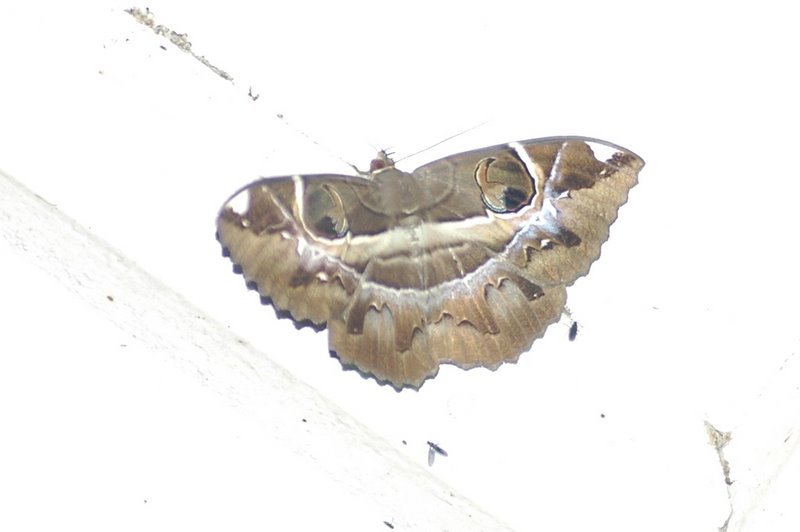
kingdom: Animalia
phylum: Arthropoda
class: Insecta
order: Lepidoptera
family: Erebidae
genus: Erebus
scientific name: Erebus ephesperis
